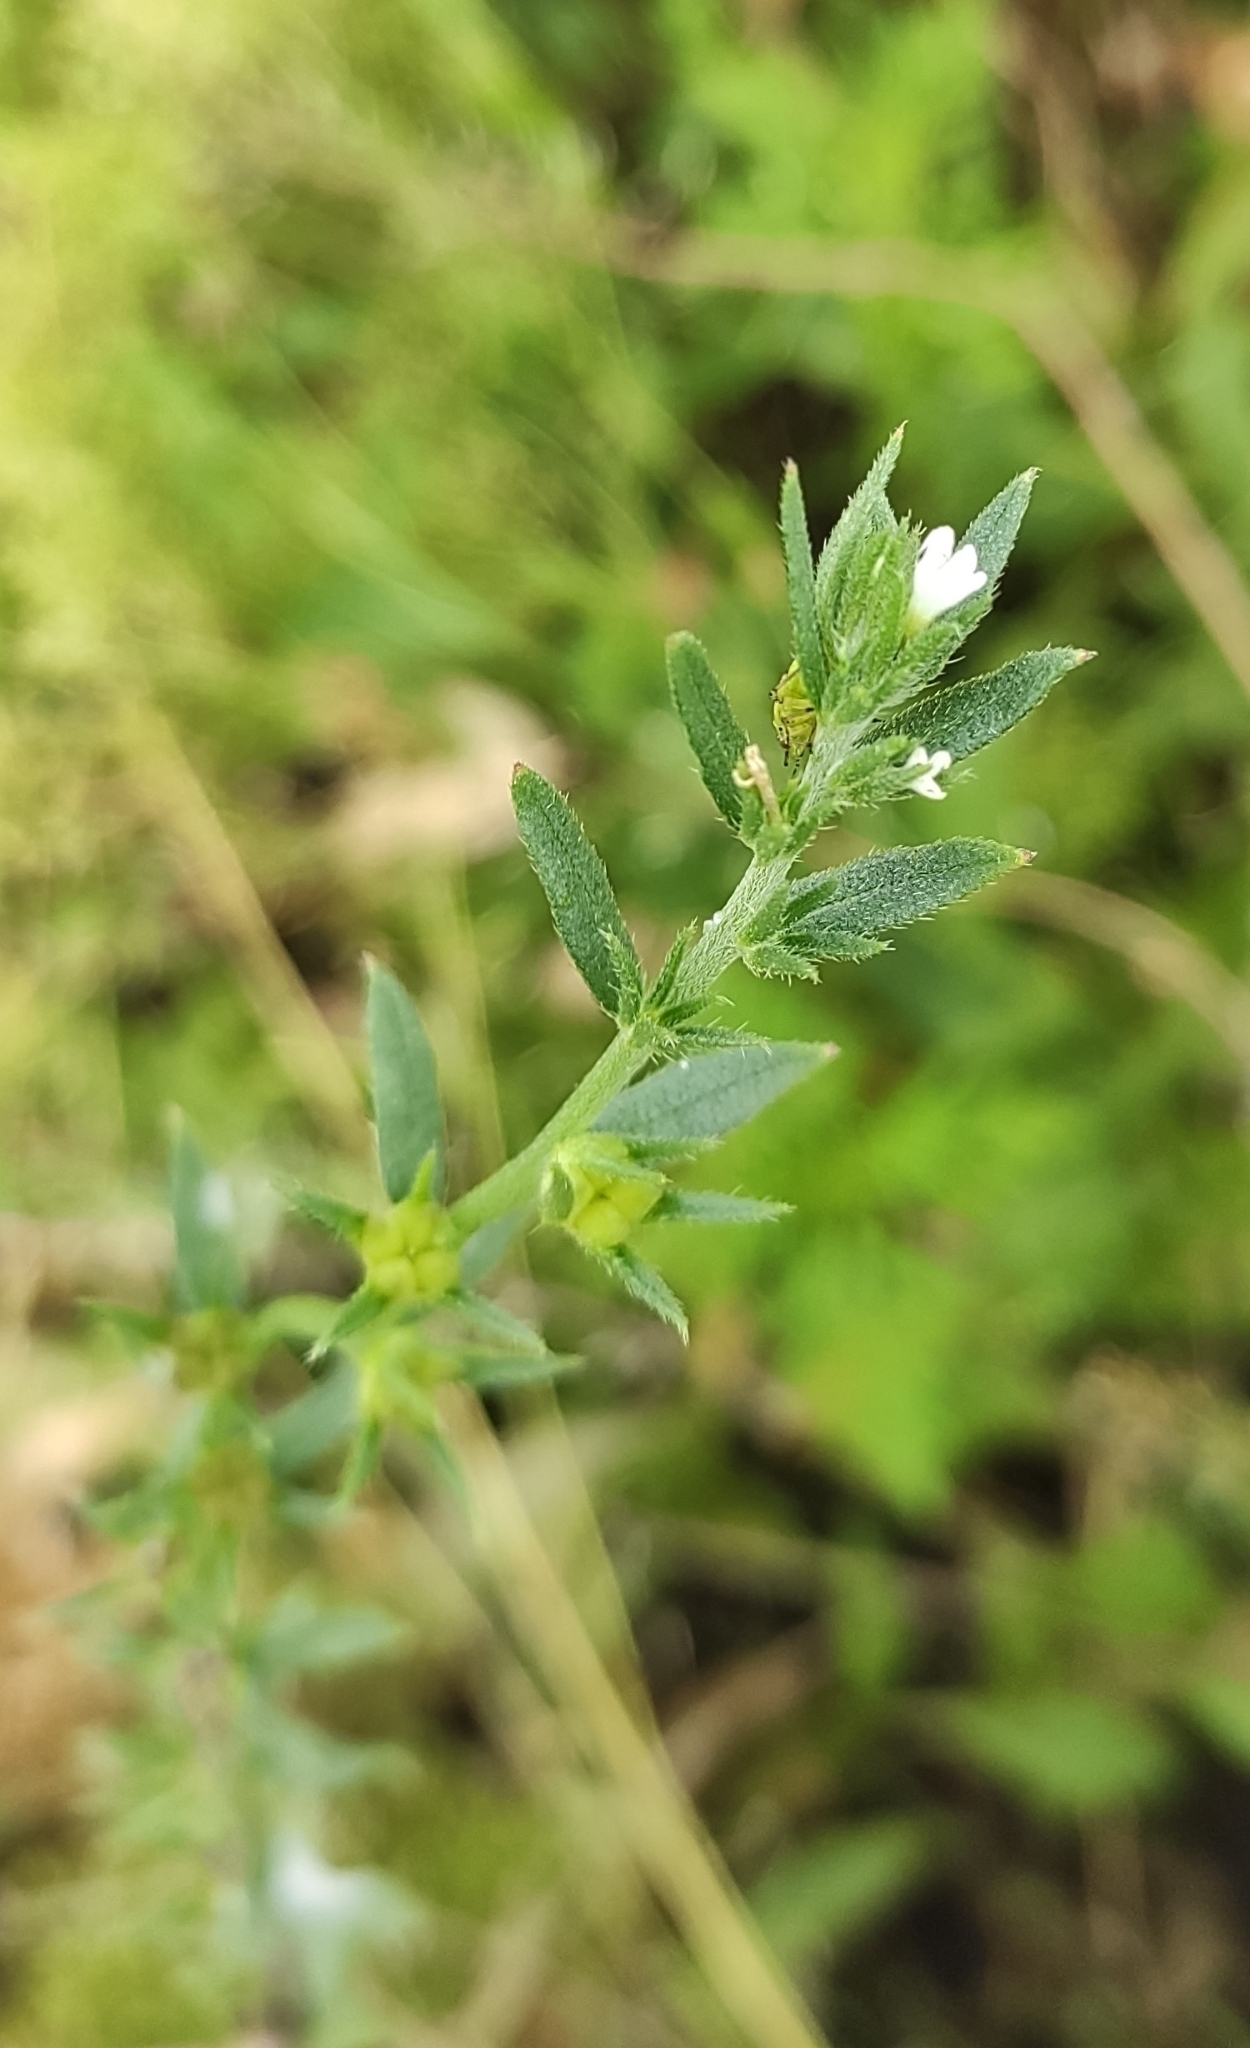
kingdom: Plantae
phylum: Tracheophyta
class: Magnoliopsida
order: Boraginales
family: Boraginaceae
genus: Buglossoides
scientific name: Buglossoides arvensis
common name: Corn gromwell
